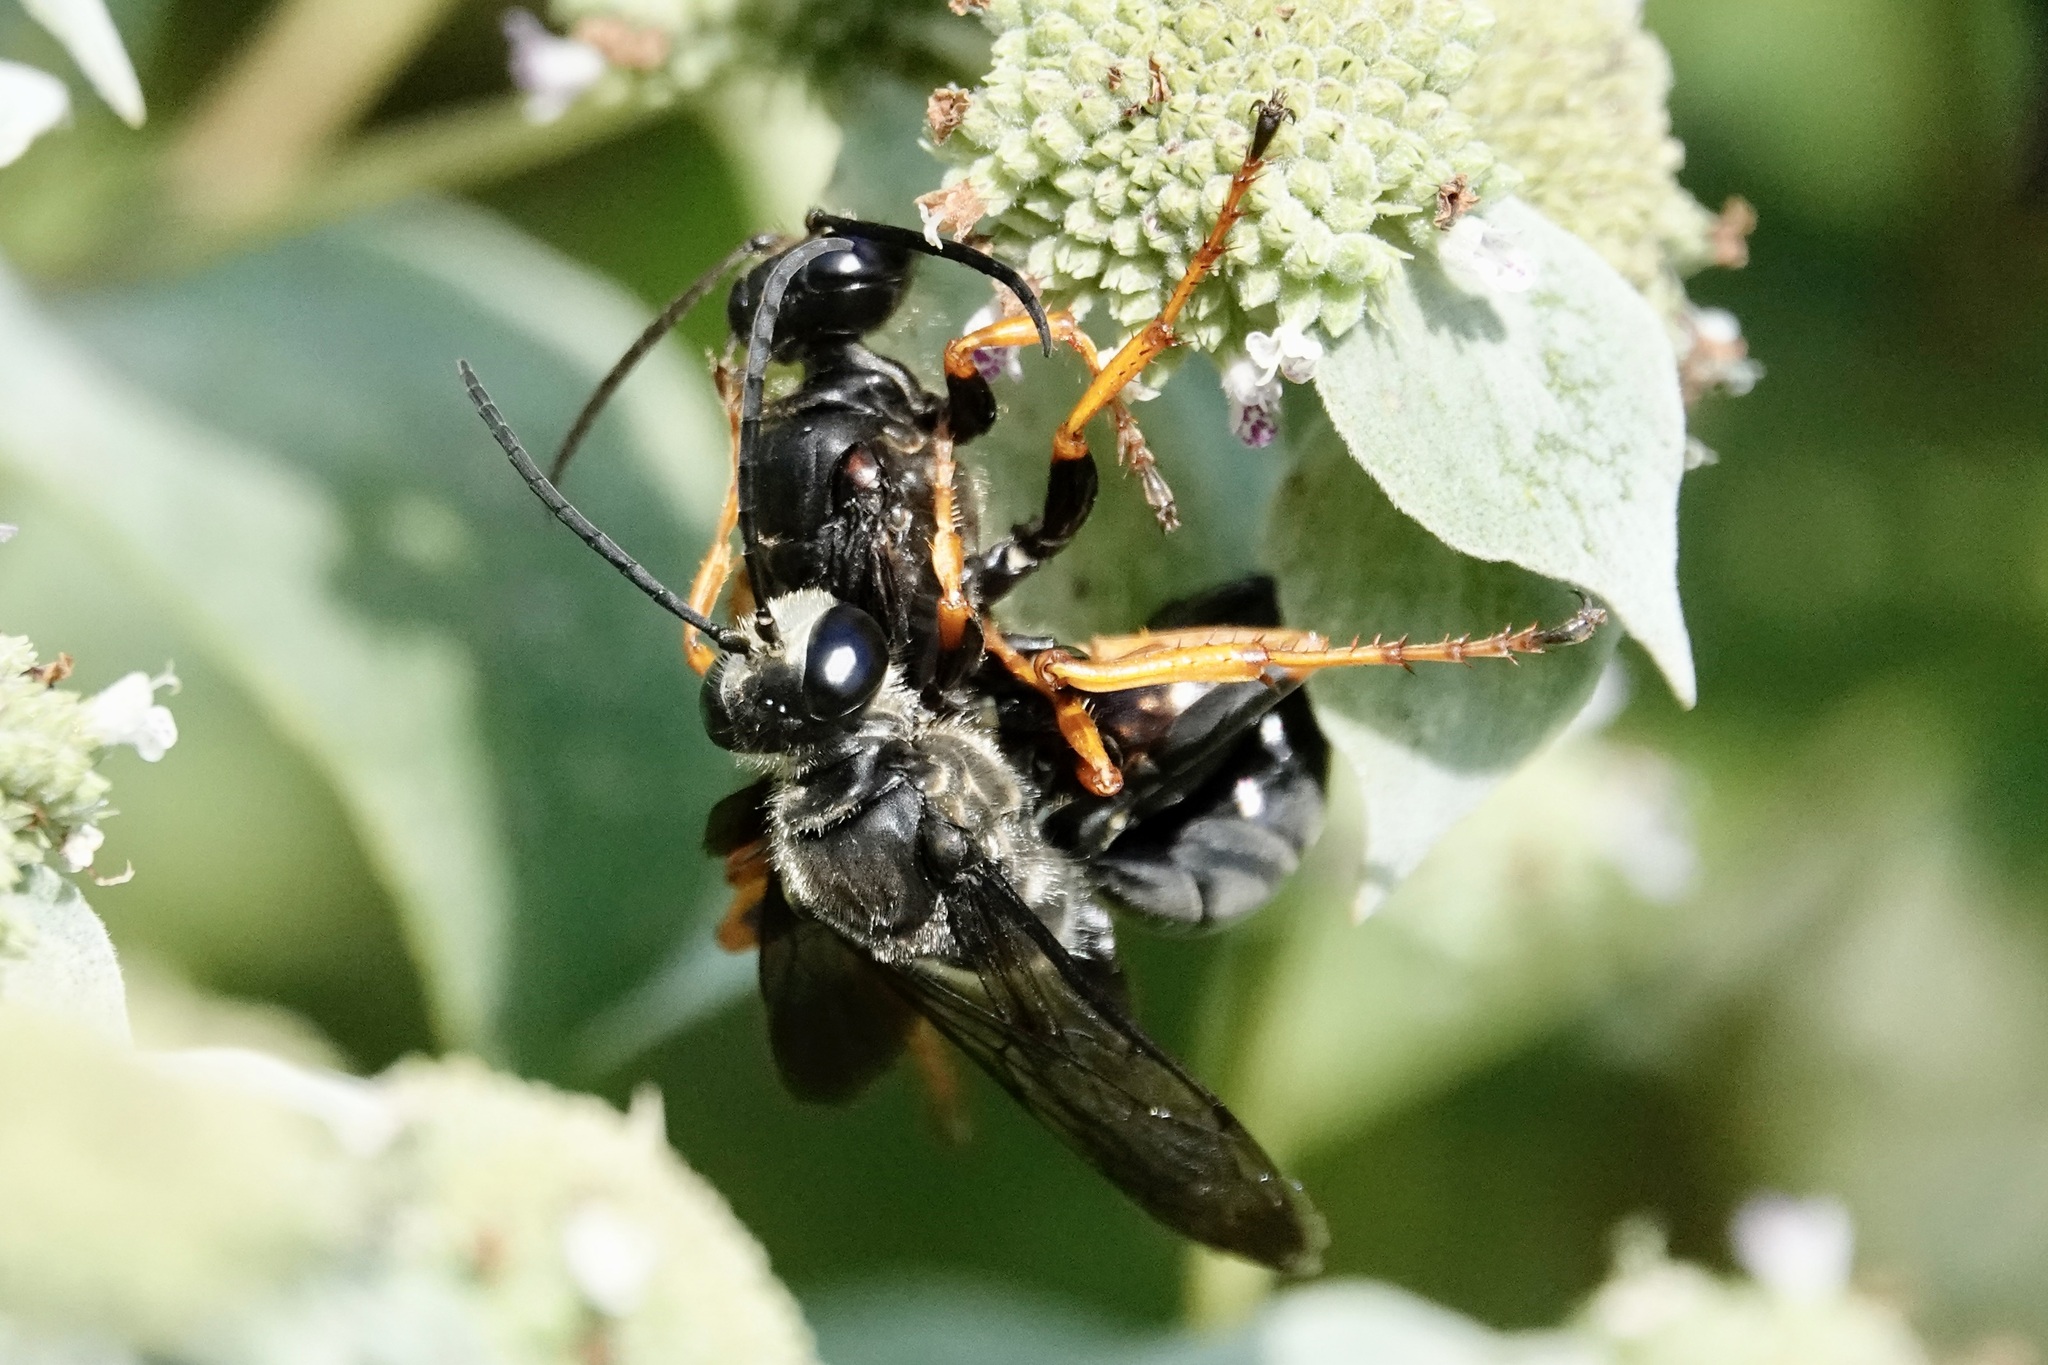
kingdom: Animalia
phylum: Arthropoda
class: Insecta
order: Hymenoptera
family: Sphecidae
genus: Sphex
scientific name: Sphex nudus
